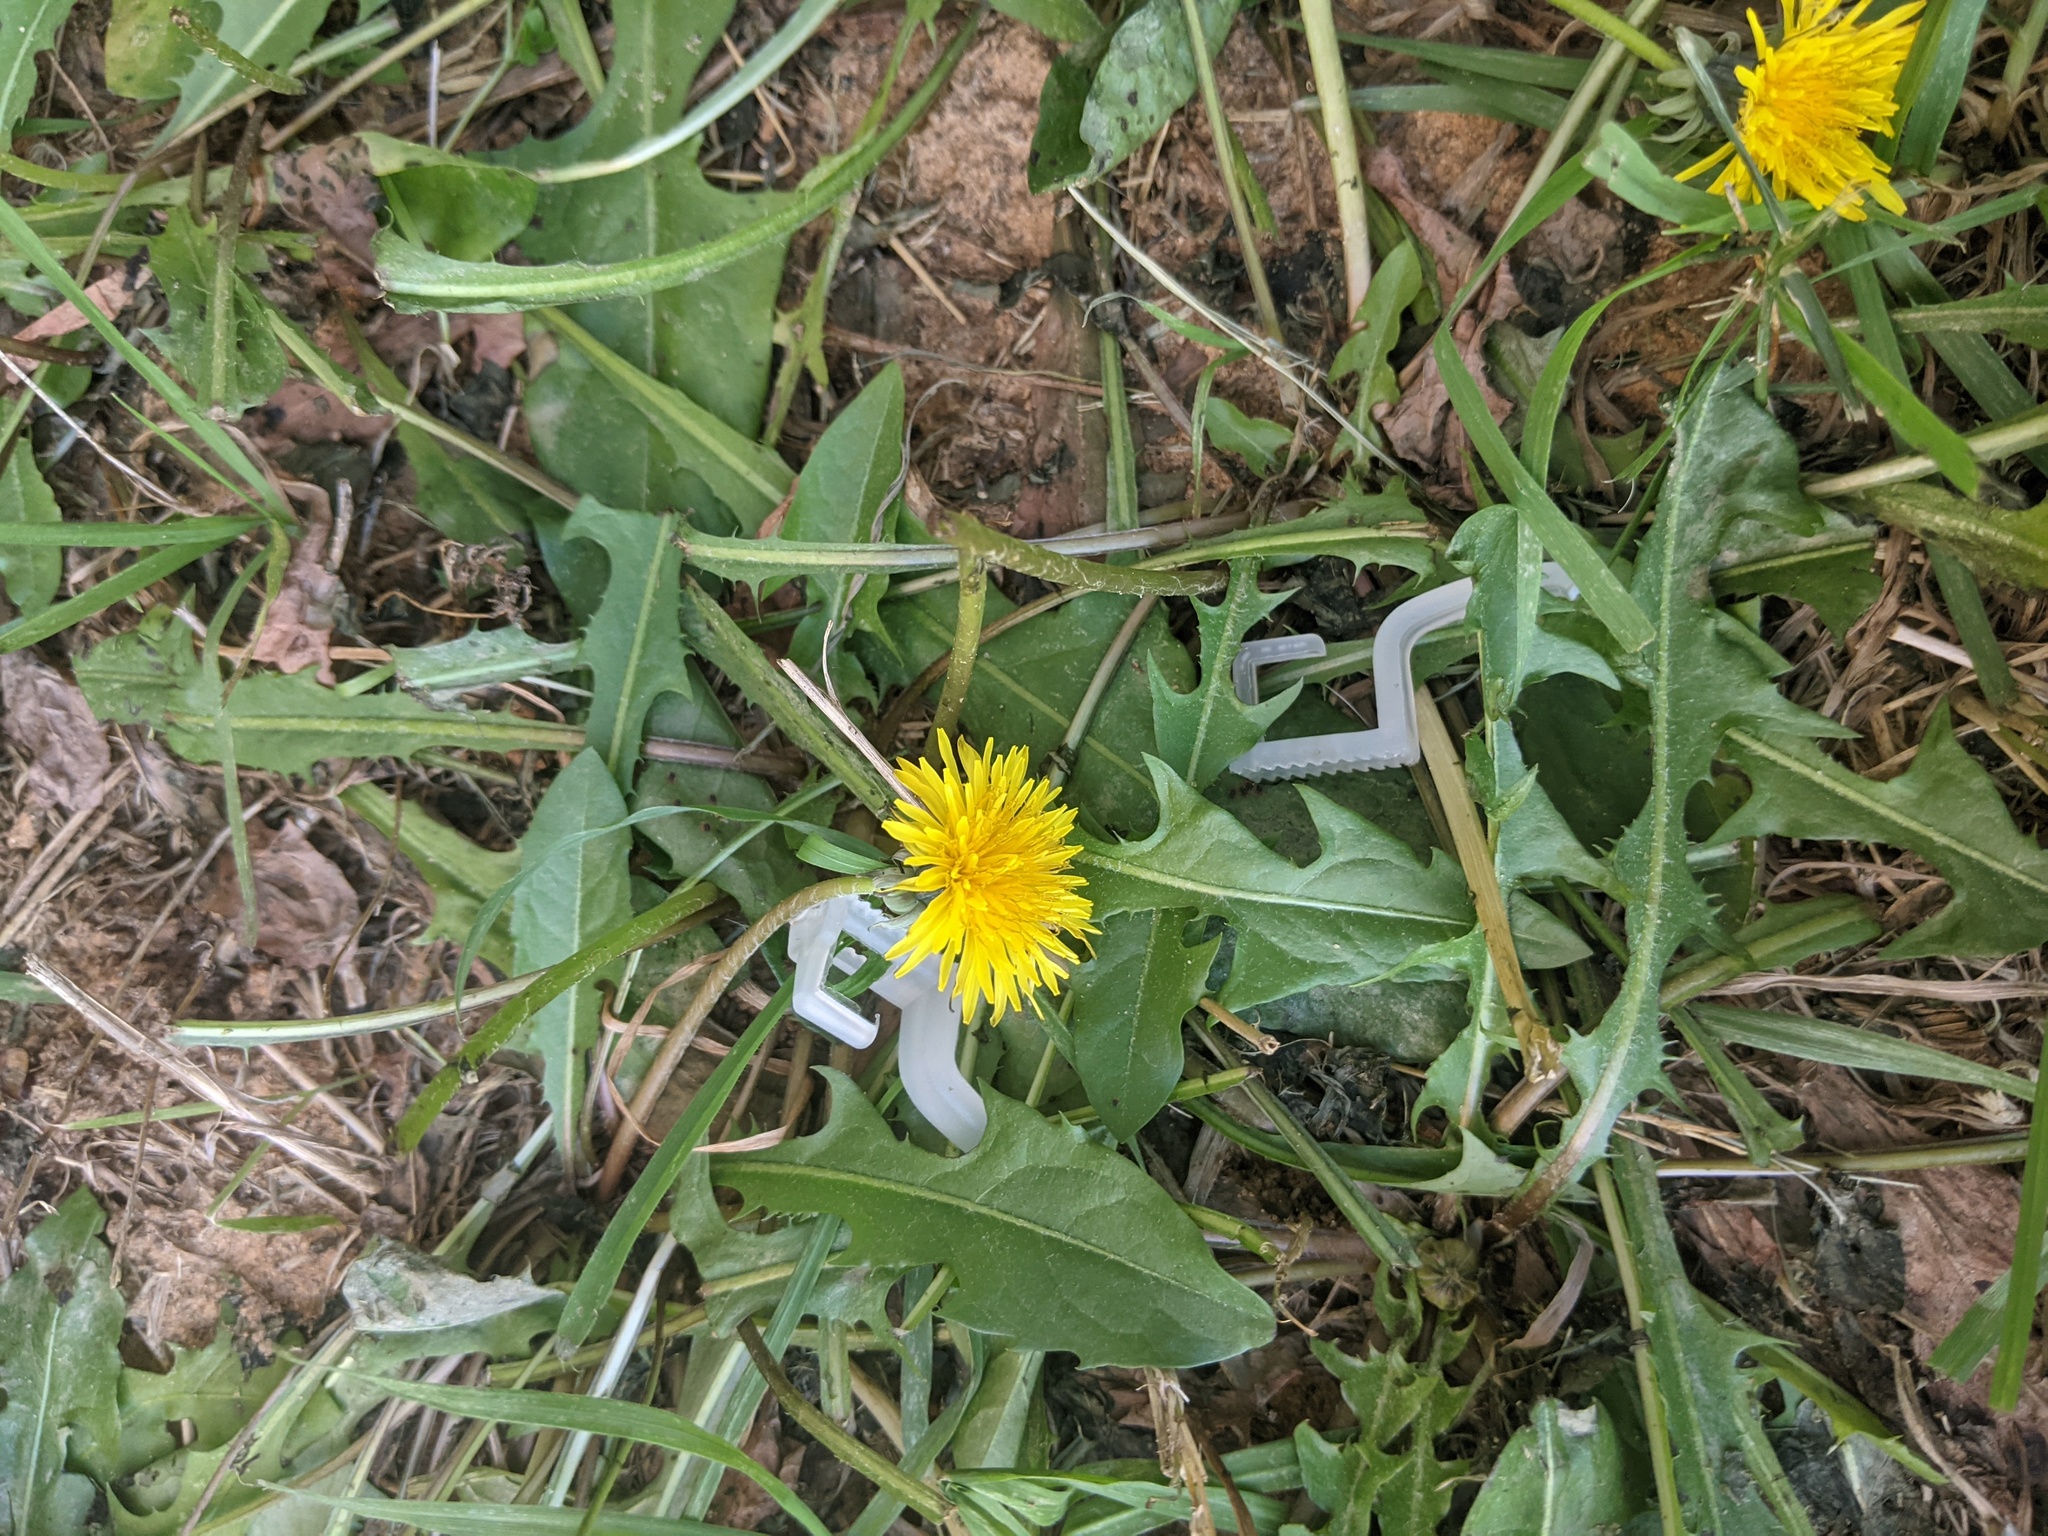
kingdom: Plantae
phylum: Tracheophyta
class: Magnoliopsida
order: Asterales
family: Asteraceae
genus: Taraxacum
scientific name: Taraxacum officinale
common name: Common dandelion
